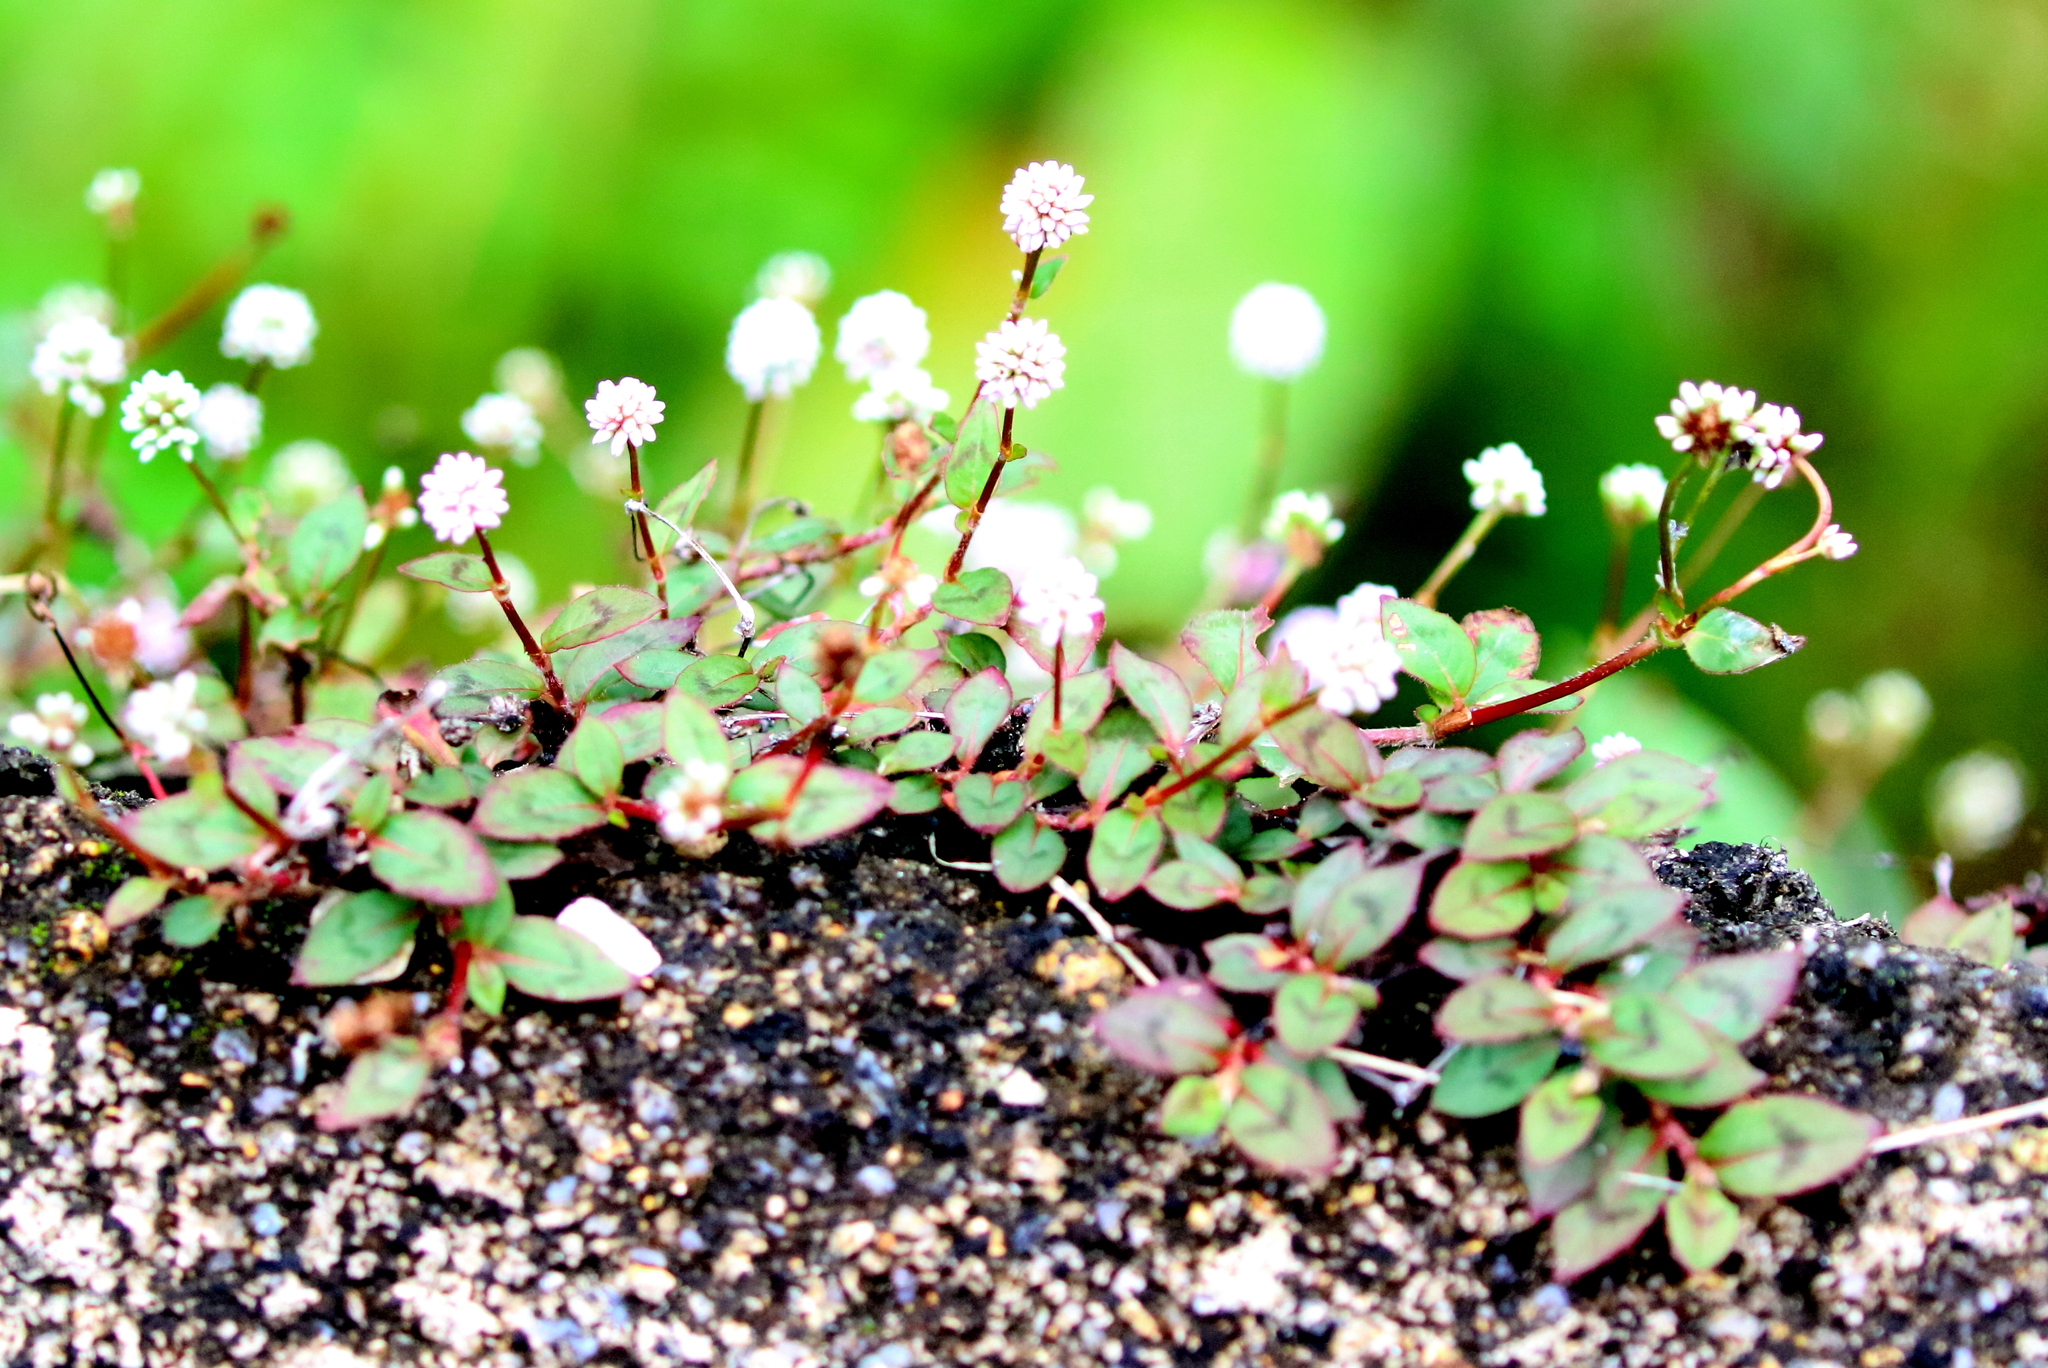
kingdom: Plantae
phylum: Tracheophyta
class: Magnoliopsida
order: Caryophyllales
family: Polygonaceae
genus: Persicaria
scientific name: Persicaria capitata
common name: Pinkhead smartweed
